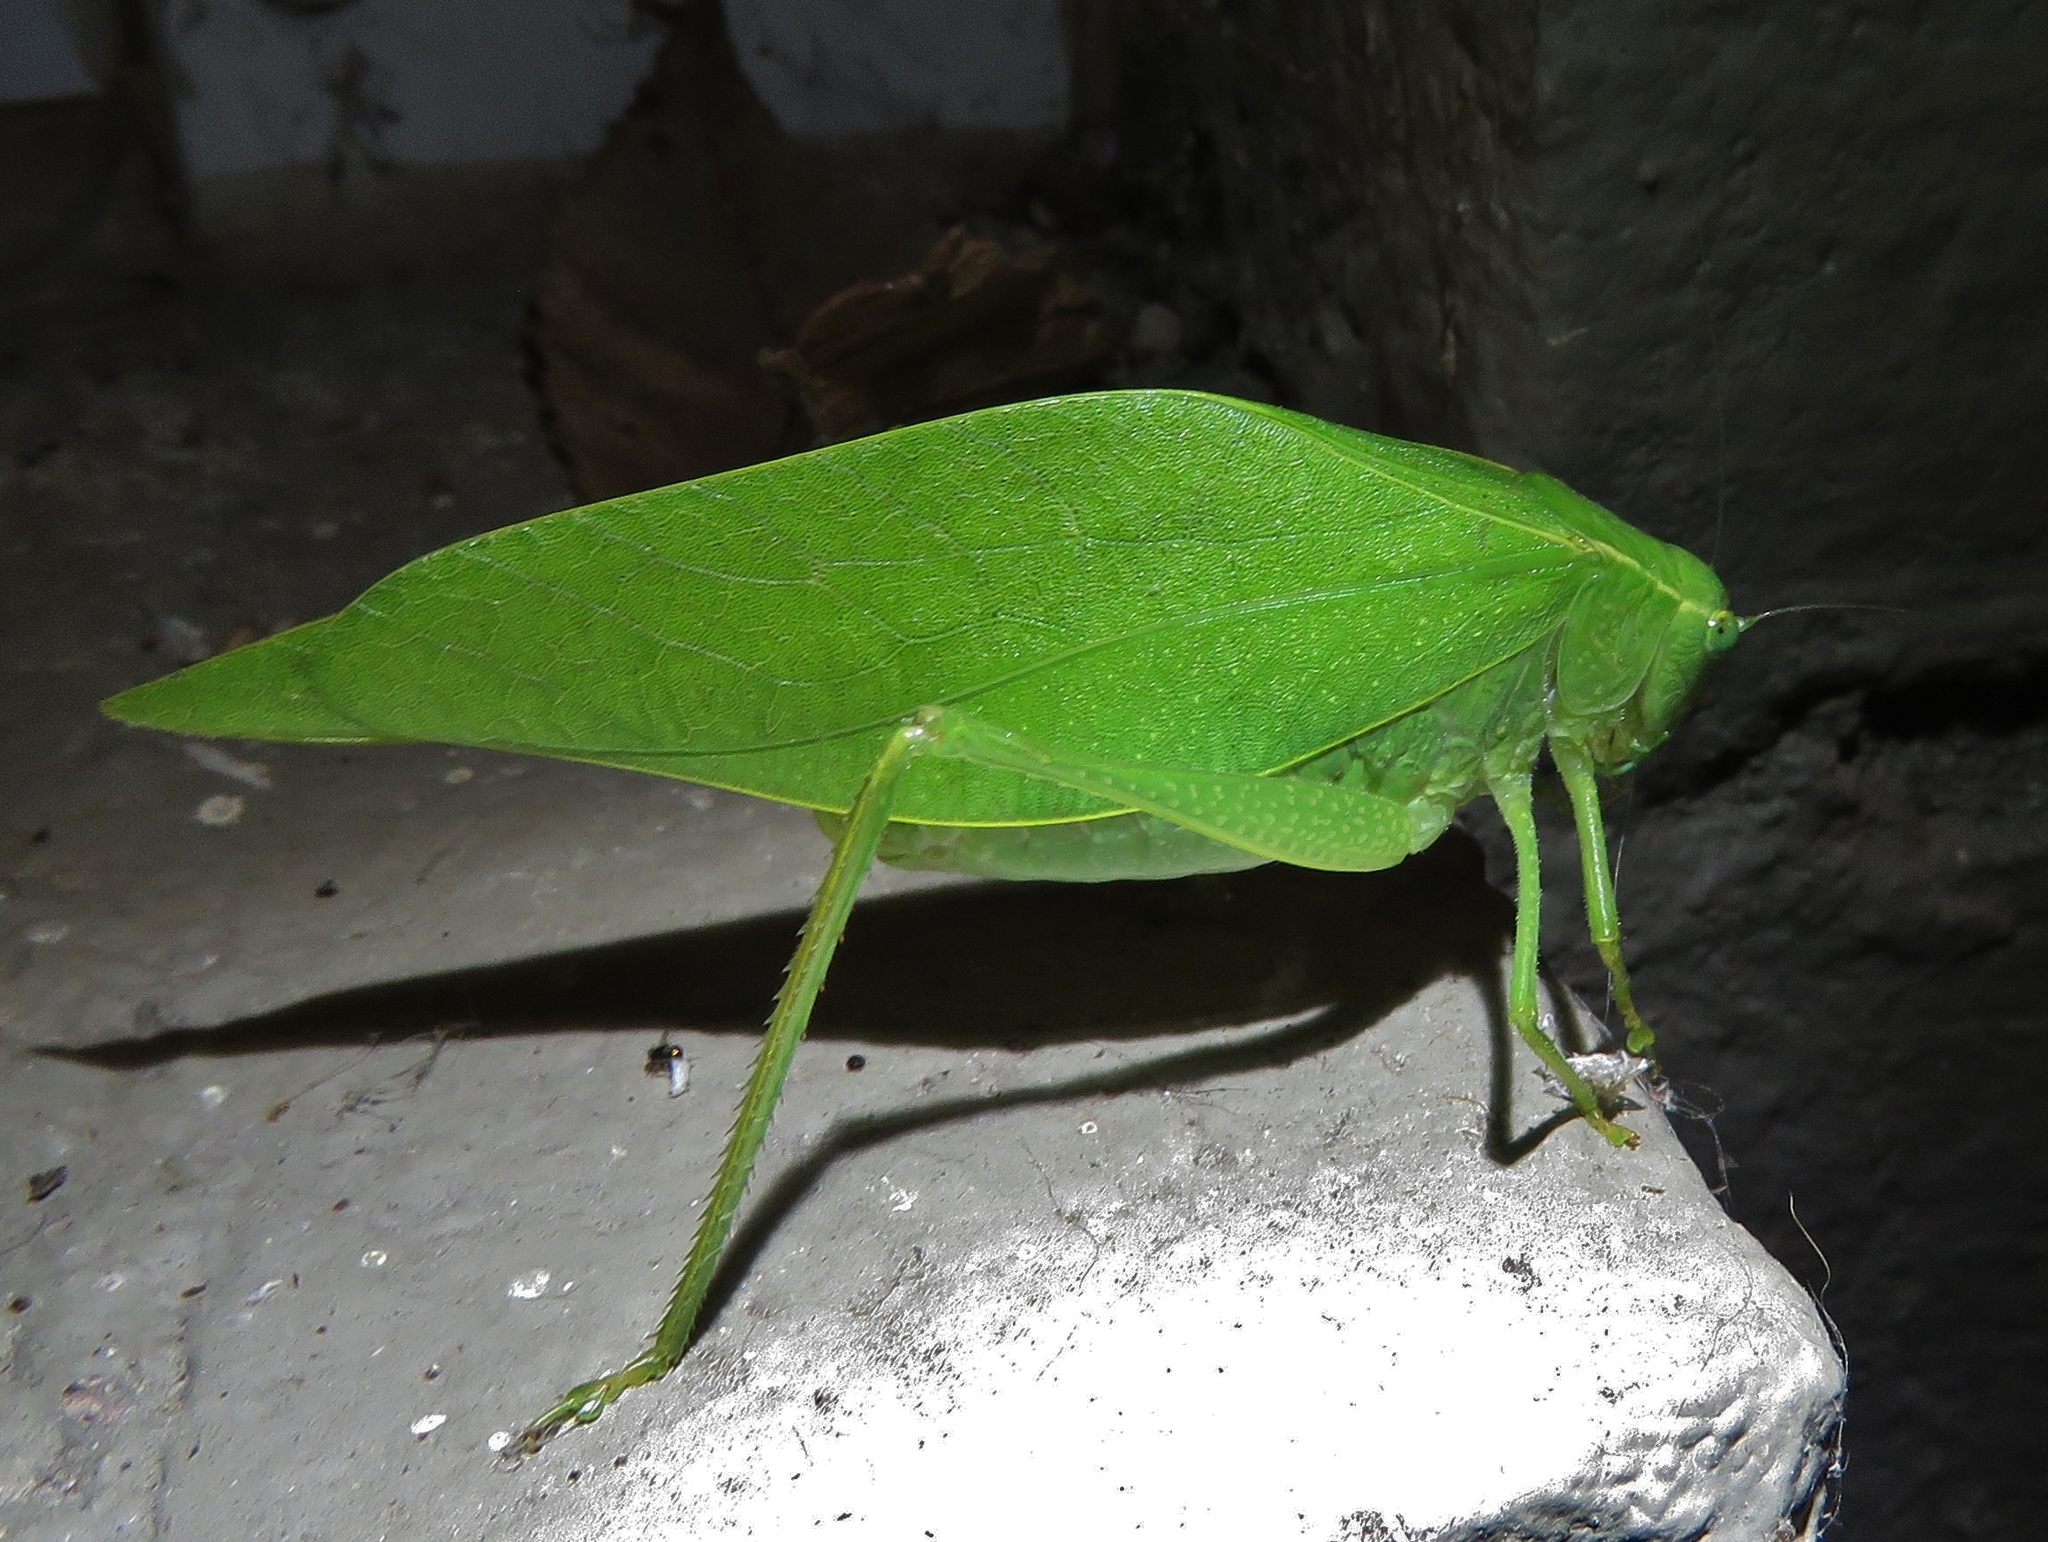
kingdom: Animalia
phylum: Arthropoda
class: Insecta
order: Orthoptera
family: Tettigoniidae
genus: Microcentrum
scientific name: Microcentrum rhombifolium
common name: Broad-winged katydid
